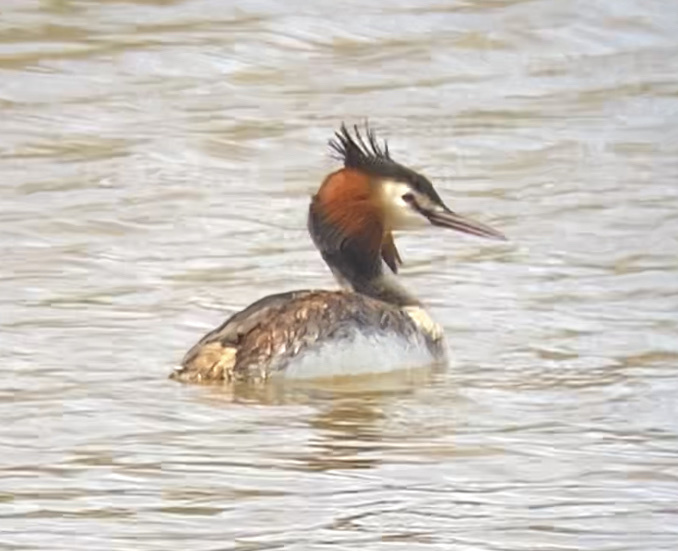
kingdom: Animalia
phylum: Chordata
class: Aves
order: Podicipediformes
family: Podicipedidae
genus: Podiceps
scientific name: Podiceps cristatus
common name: Great crested grebe
